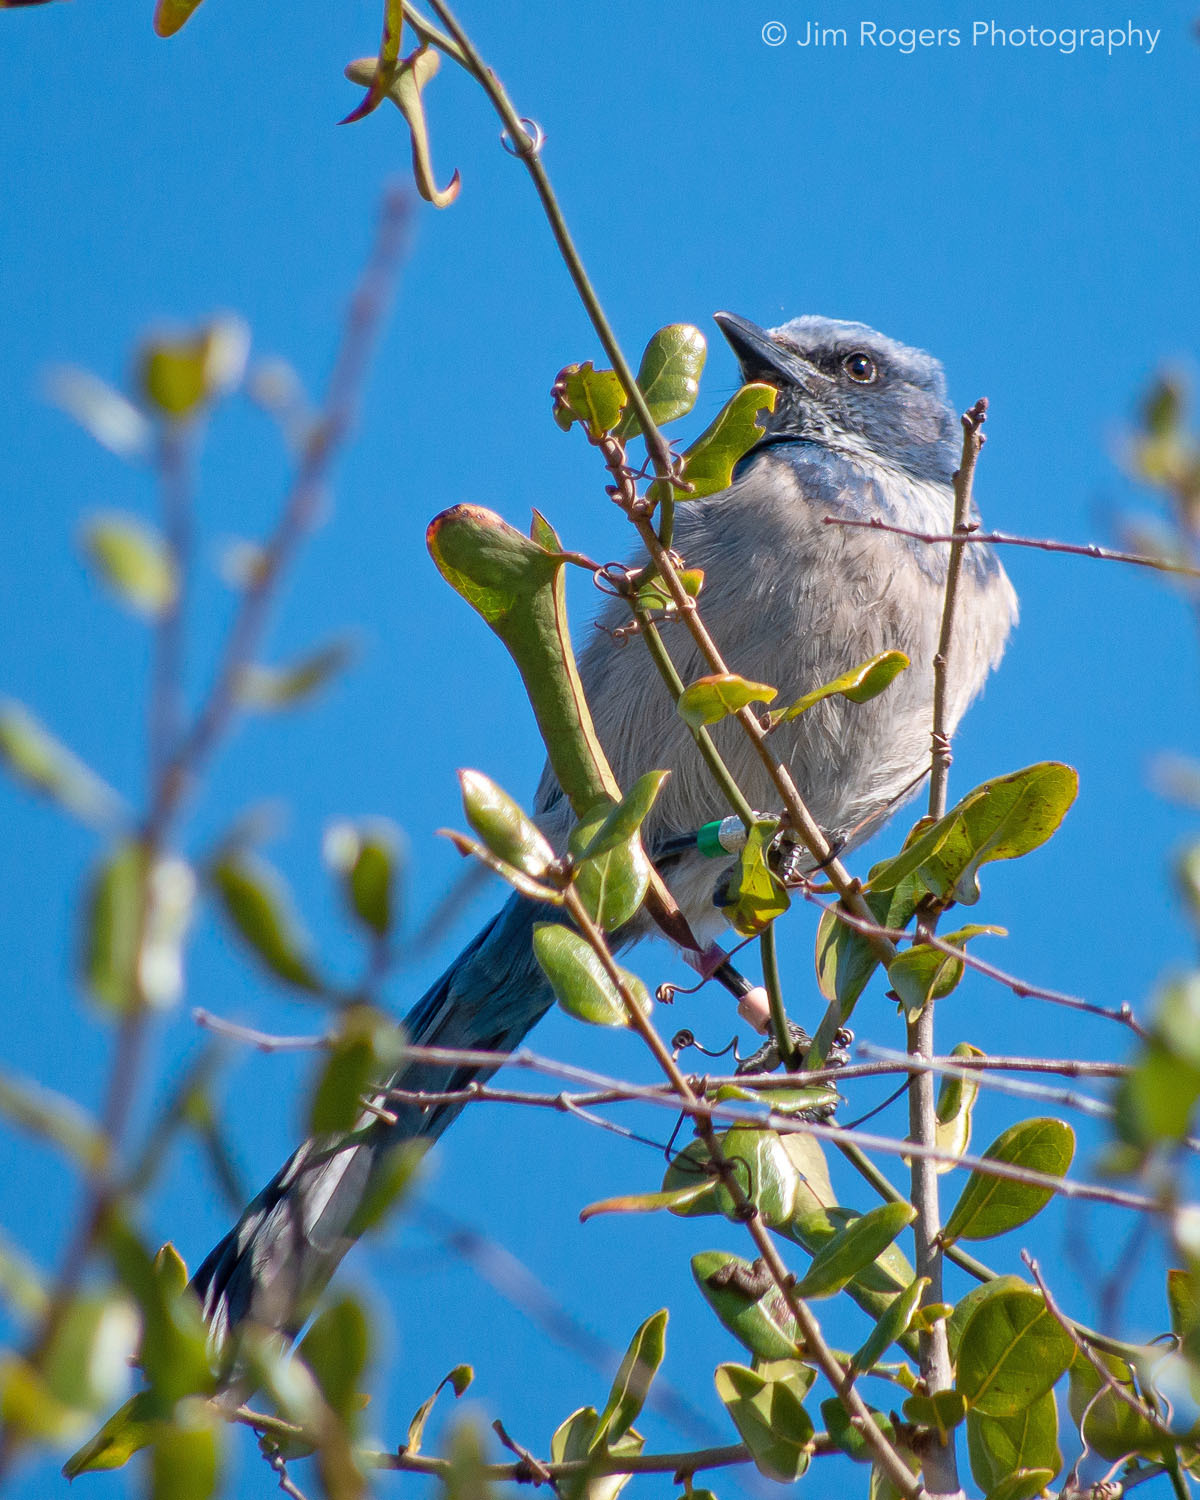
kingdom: Animalia
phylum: Chordata
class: Aves
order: Passeriformes
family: Corvidae
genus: Aphelocoma
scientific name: Aphelocoma coerulescens
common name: Florida scrub jay
